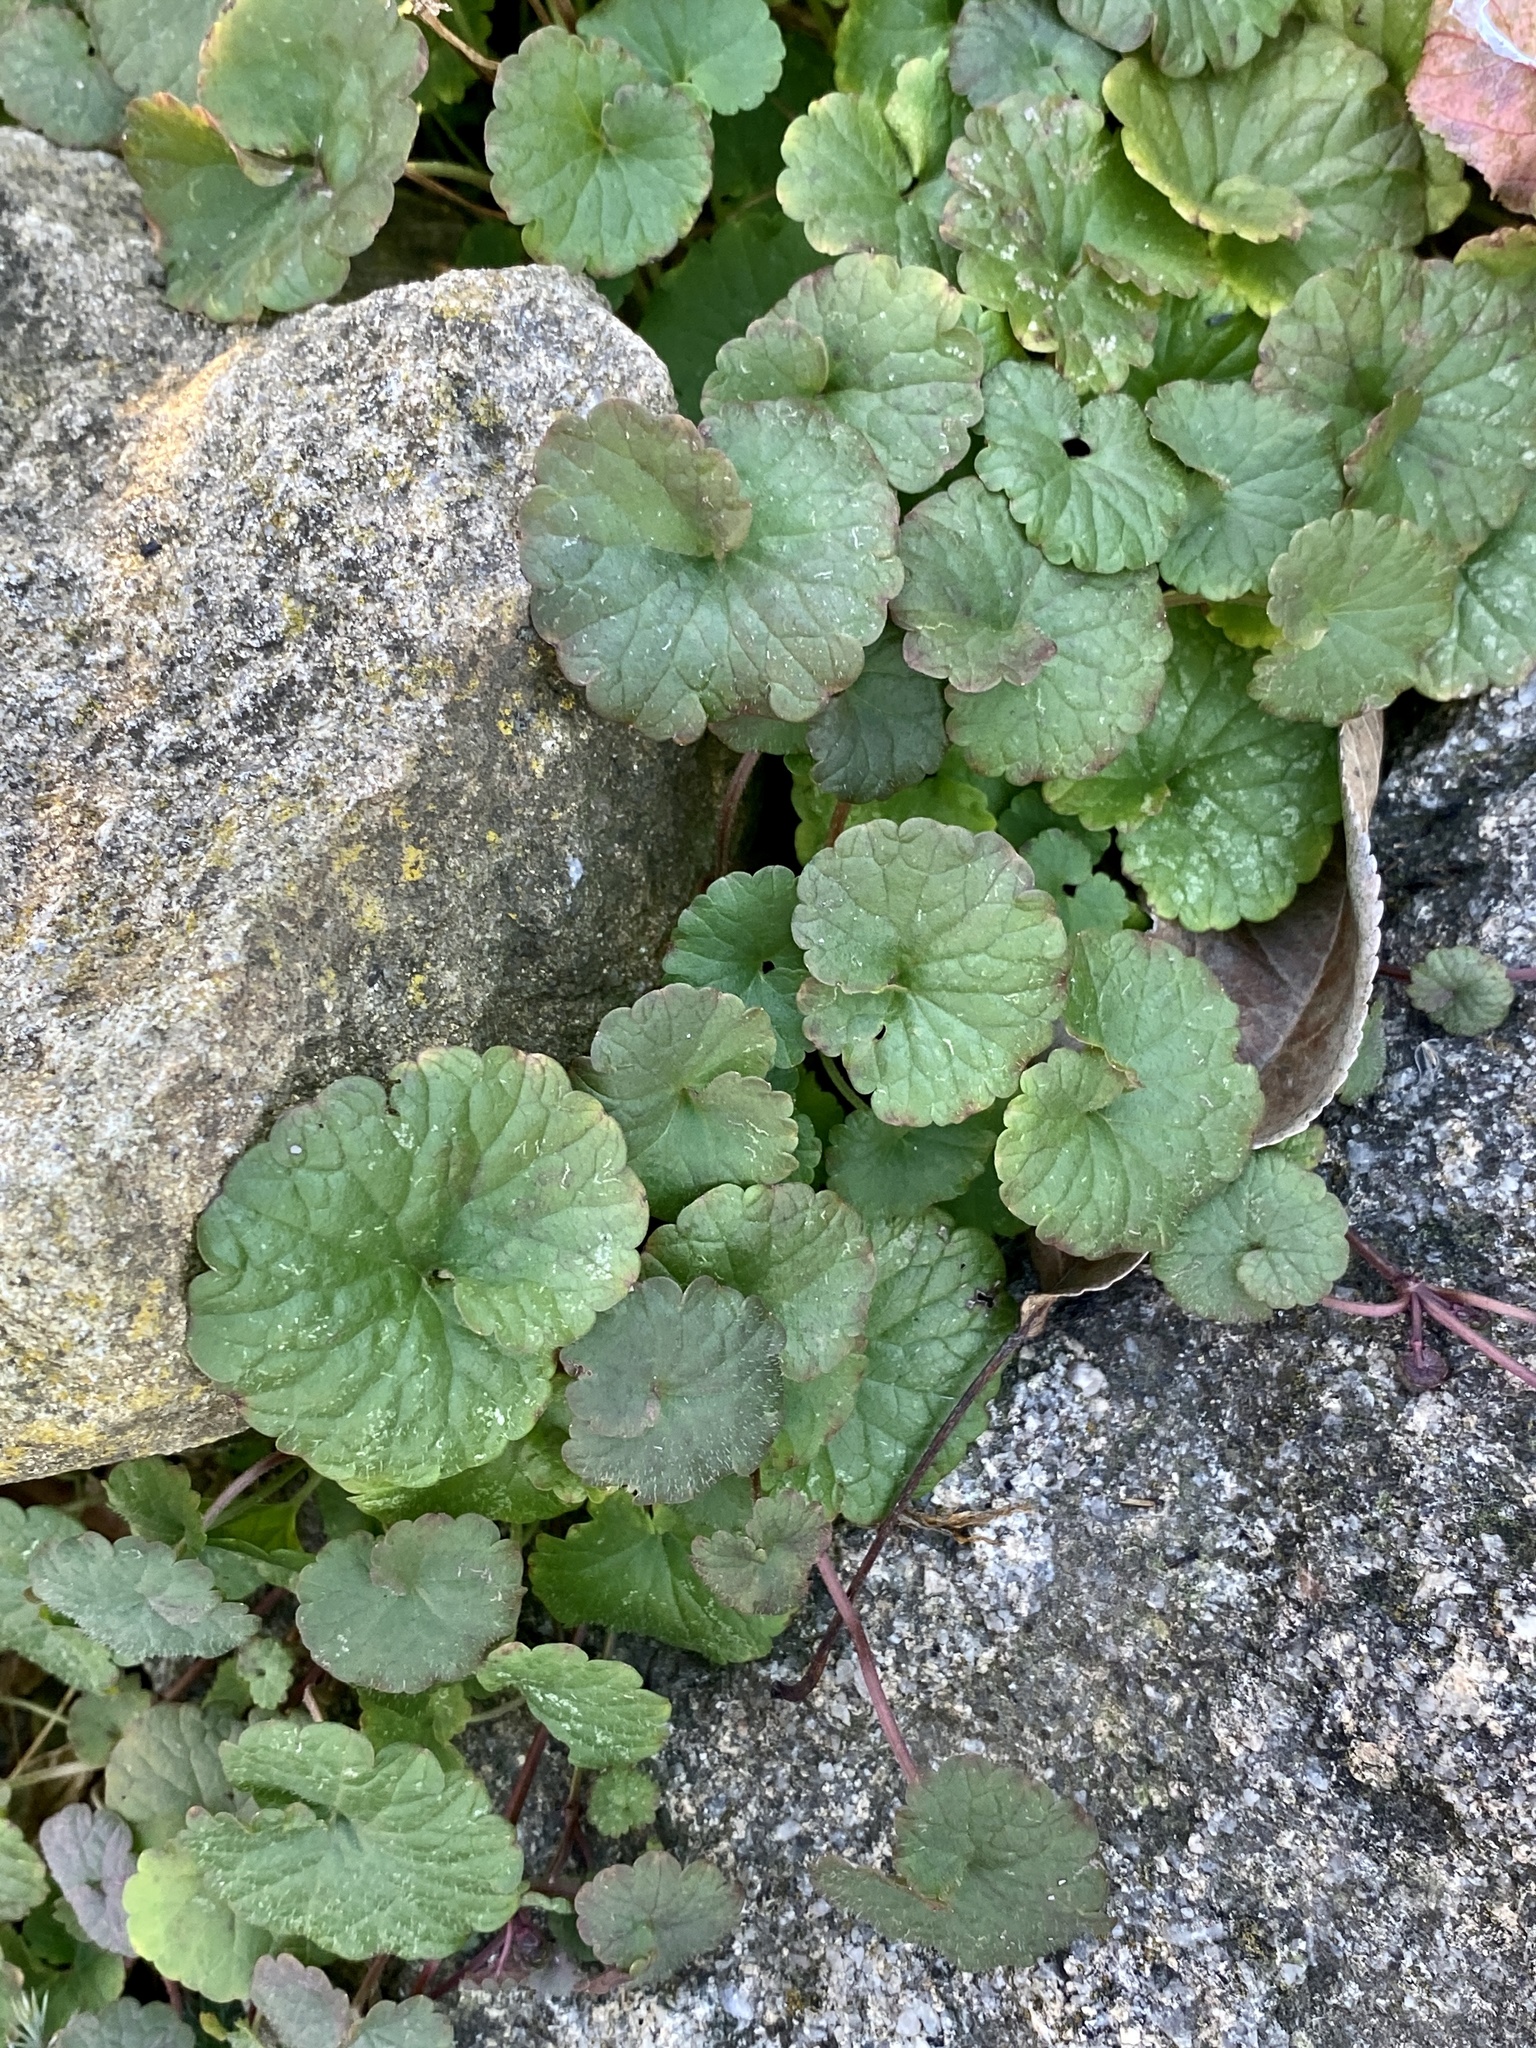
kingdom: Plantae
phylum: Tracheophyta
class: Magnoliopsida
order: Lamiales
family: Lamiaceae
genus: Glechoma
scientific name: Glechoma hederacea
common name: Ground ivy
